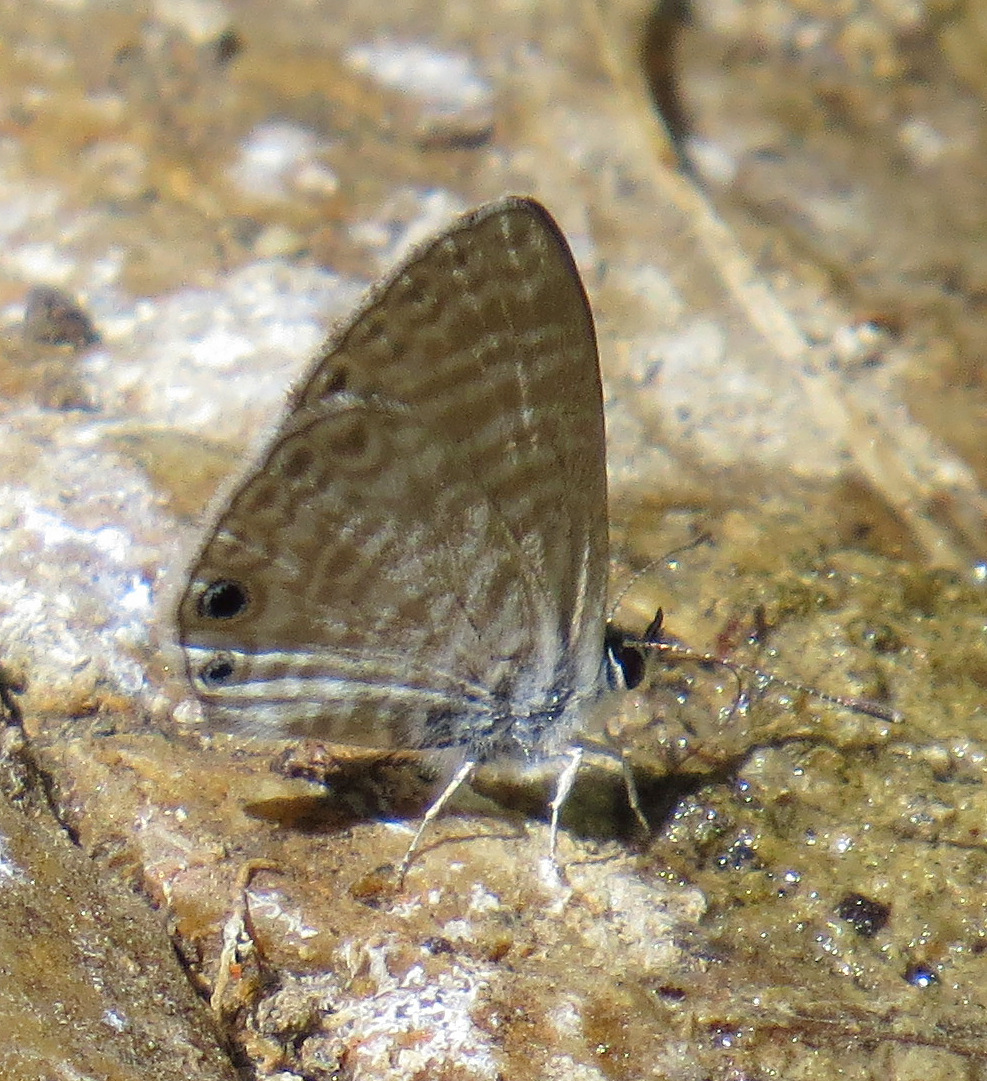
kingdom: Animalia
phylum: Arthropoda
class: Insecta
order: Lepidoptera
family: Lycaenidae
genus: Leptotes
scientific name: Leptotes marina
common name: Marine blue
